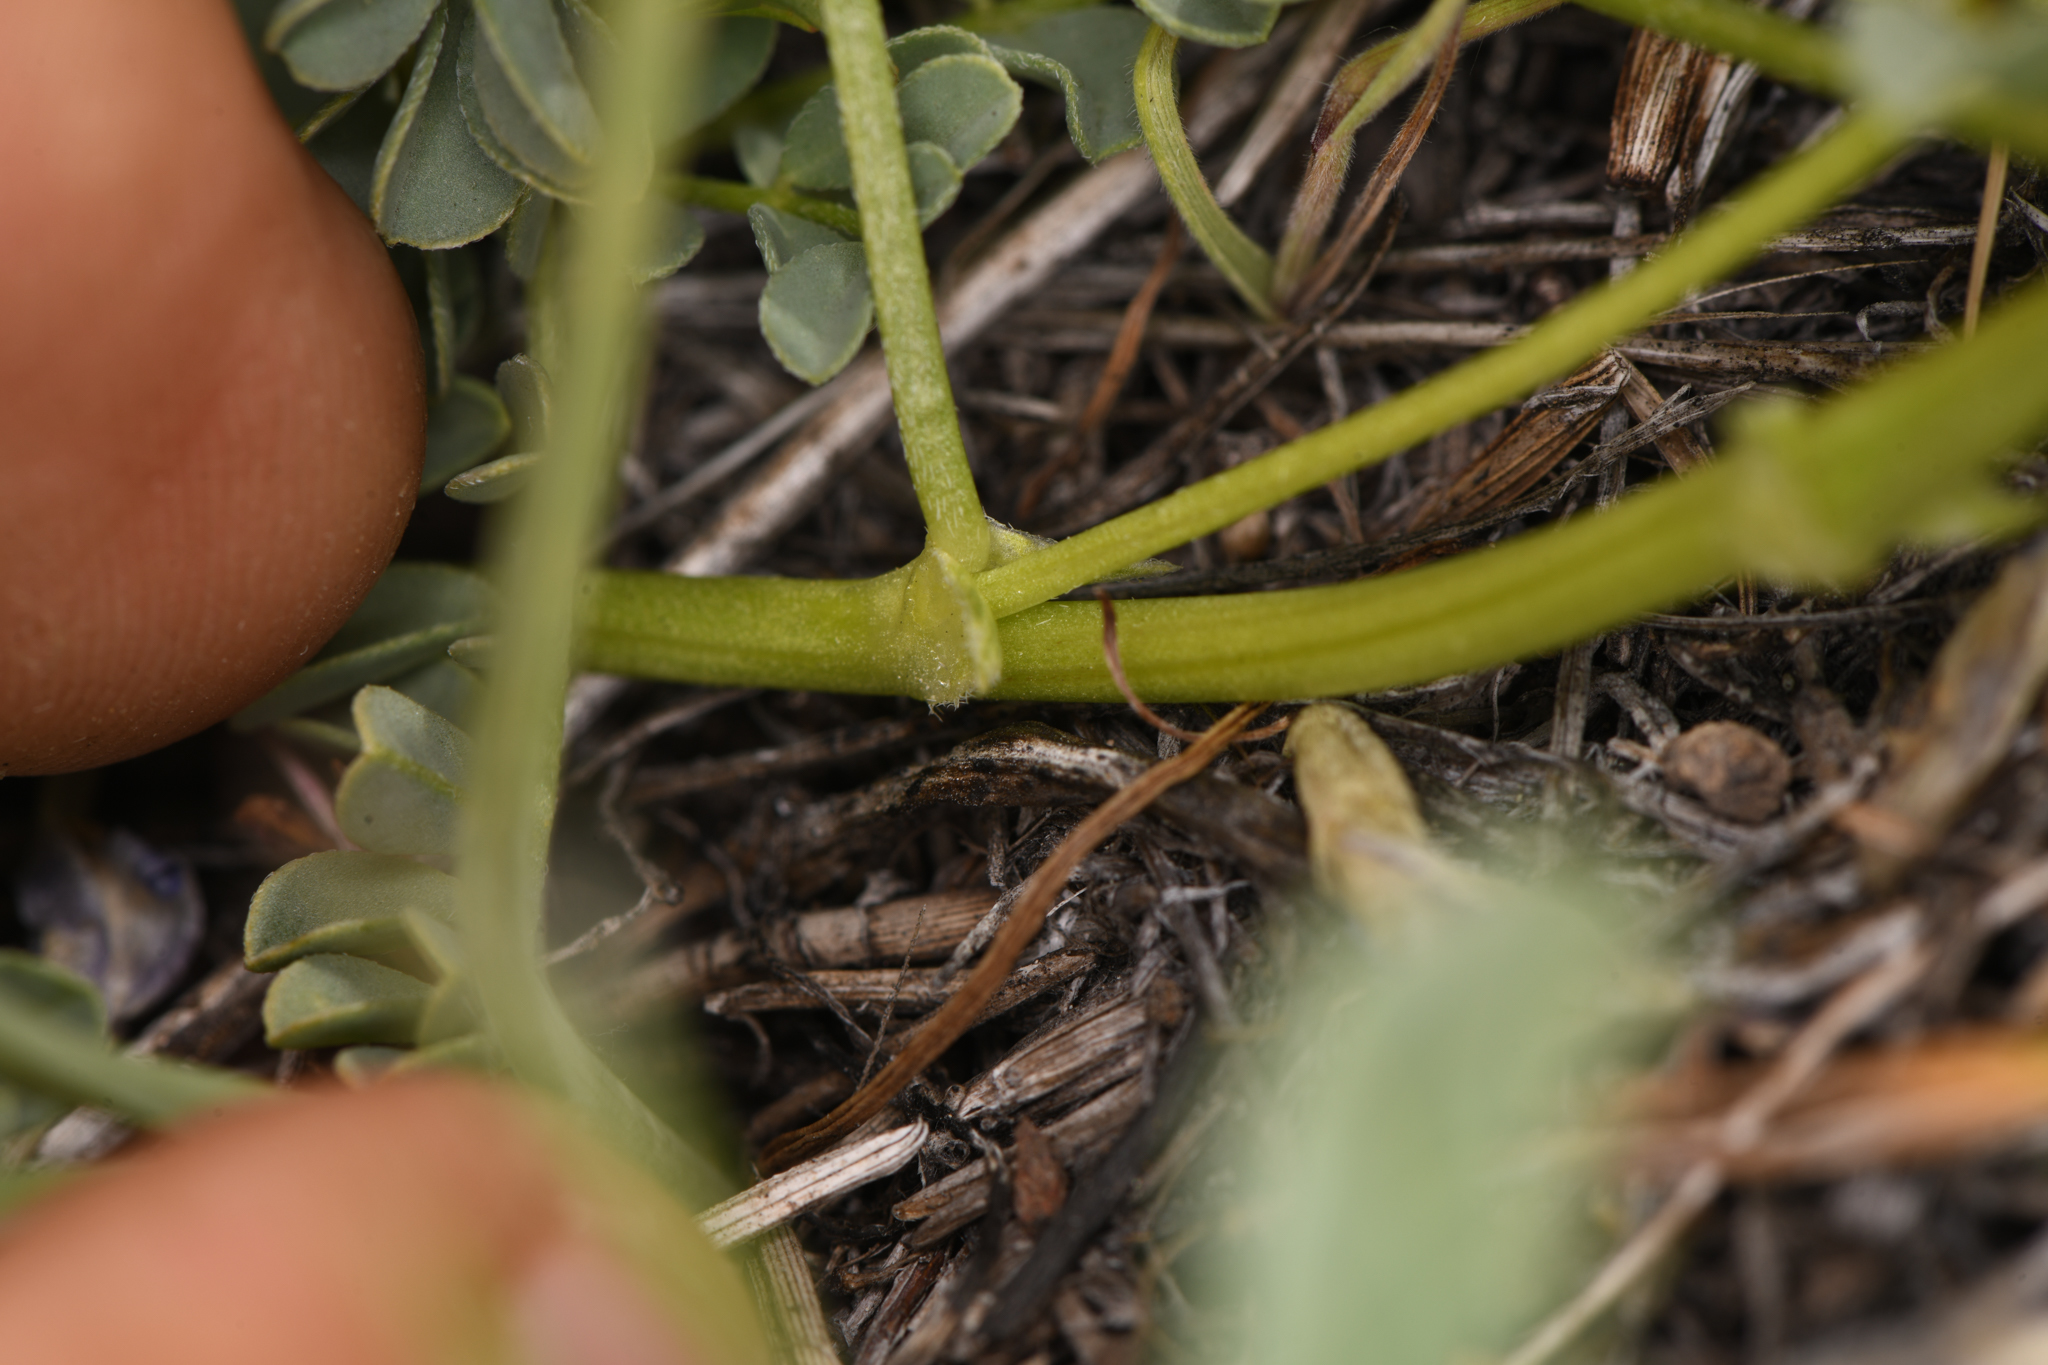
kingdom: Plantae
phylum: Tracheophyta
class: Magnoliopsida
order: Fabales
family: Fabaceae
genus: Astragalus
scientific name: Astragalus lentiginosus
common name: Freckled milkvetch
